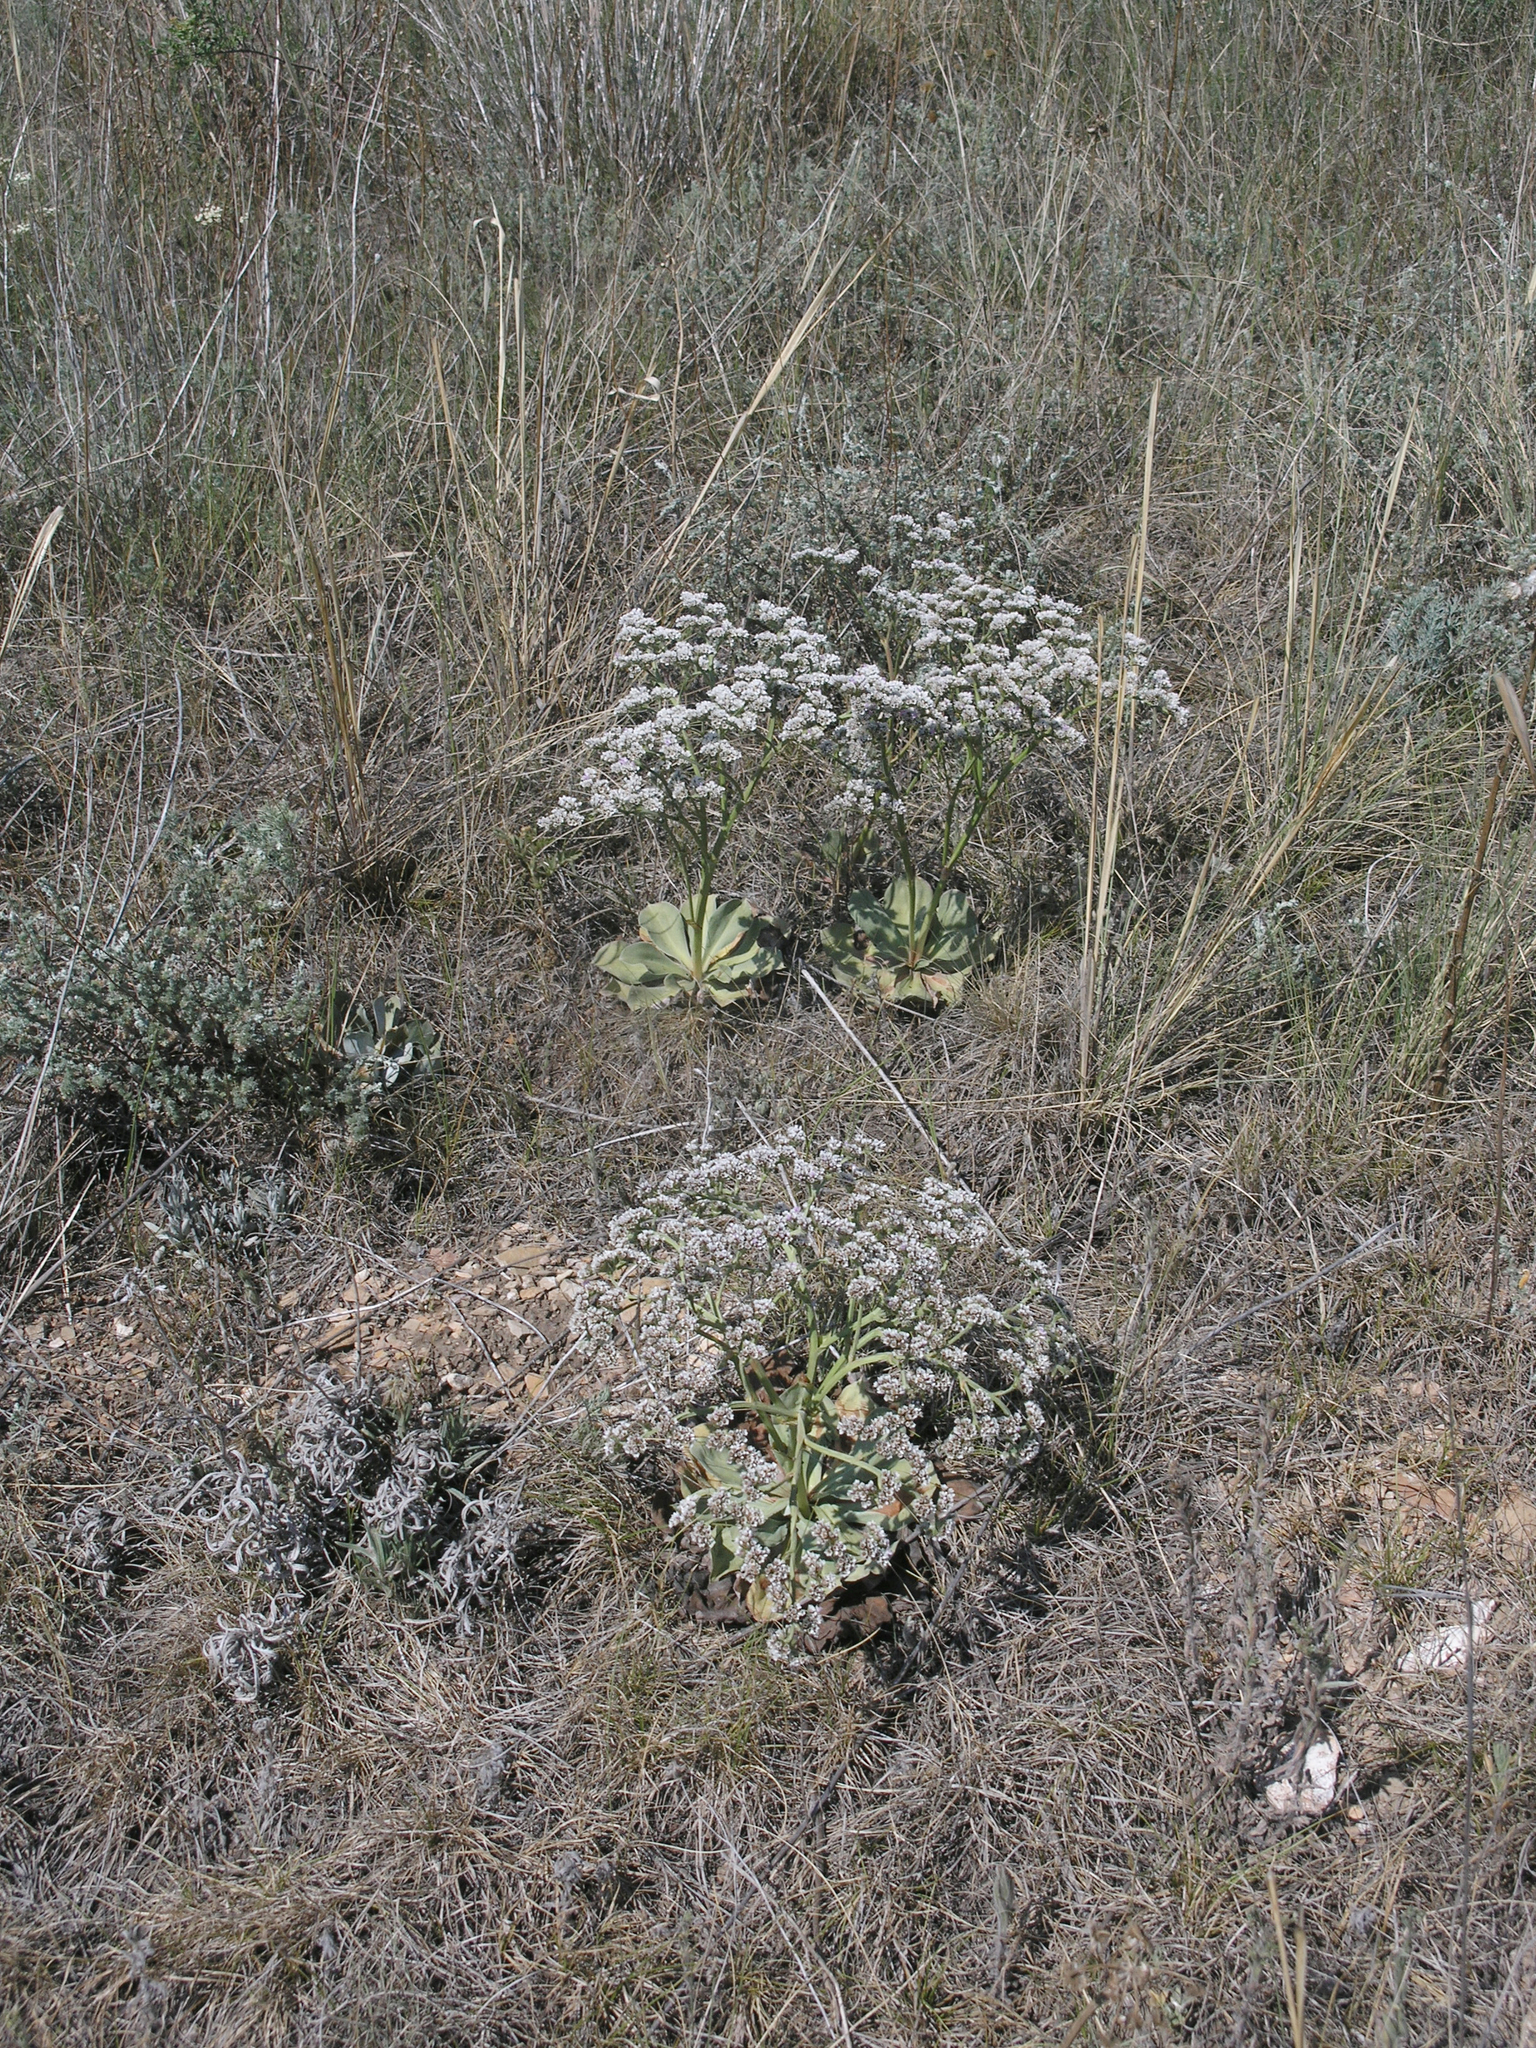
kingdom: Plantae
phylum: Tracheophyta
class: Magnoliopsida
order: Caryophyllales
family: Plumbaginaceae
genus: Goniolimon
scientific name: Goniolimon speciosum
